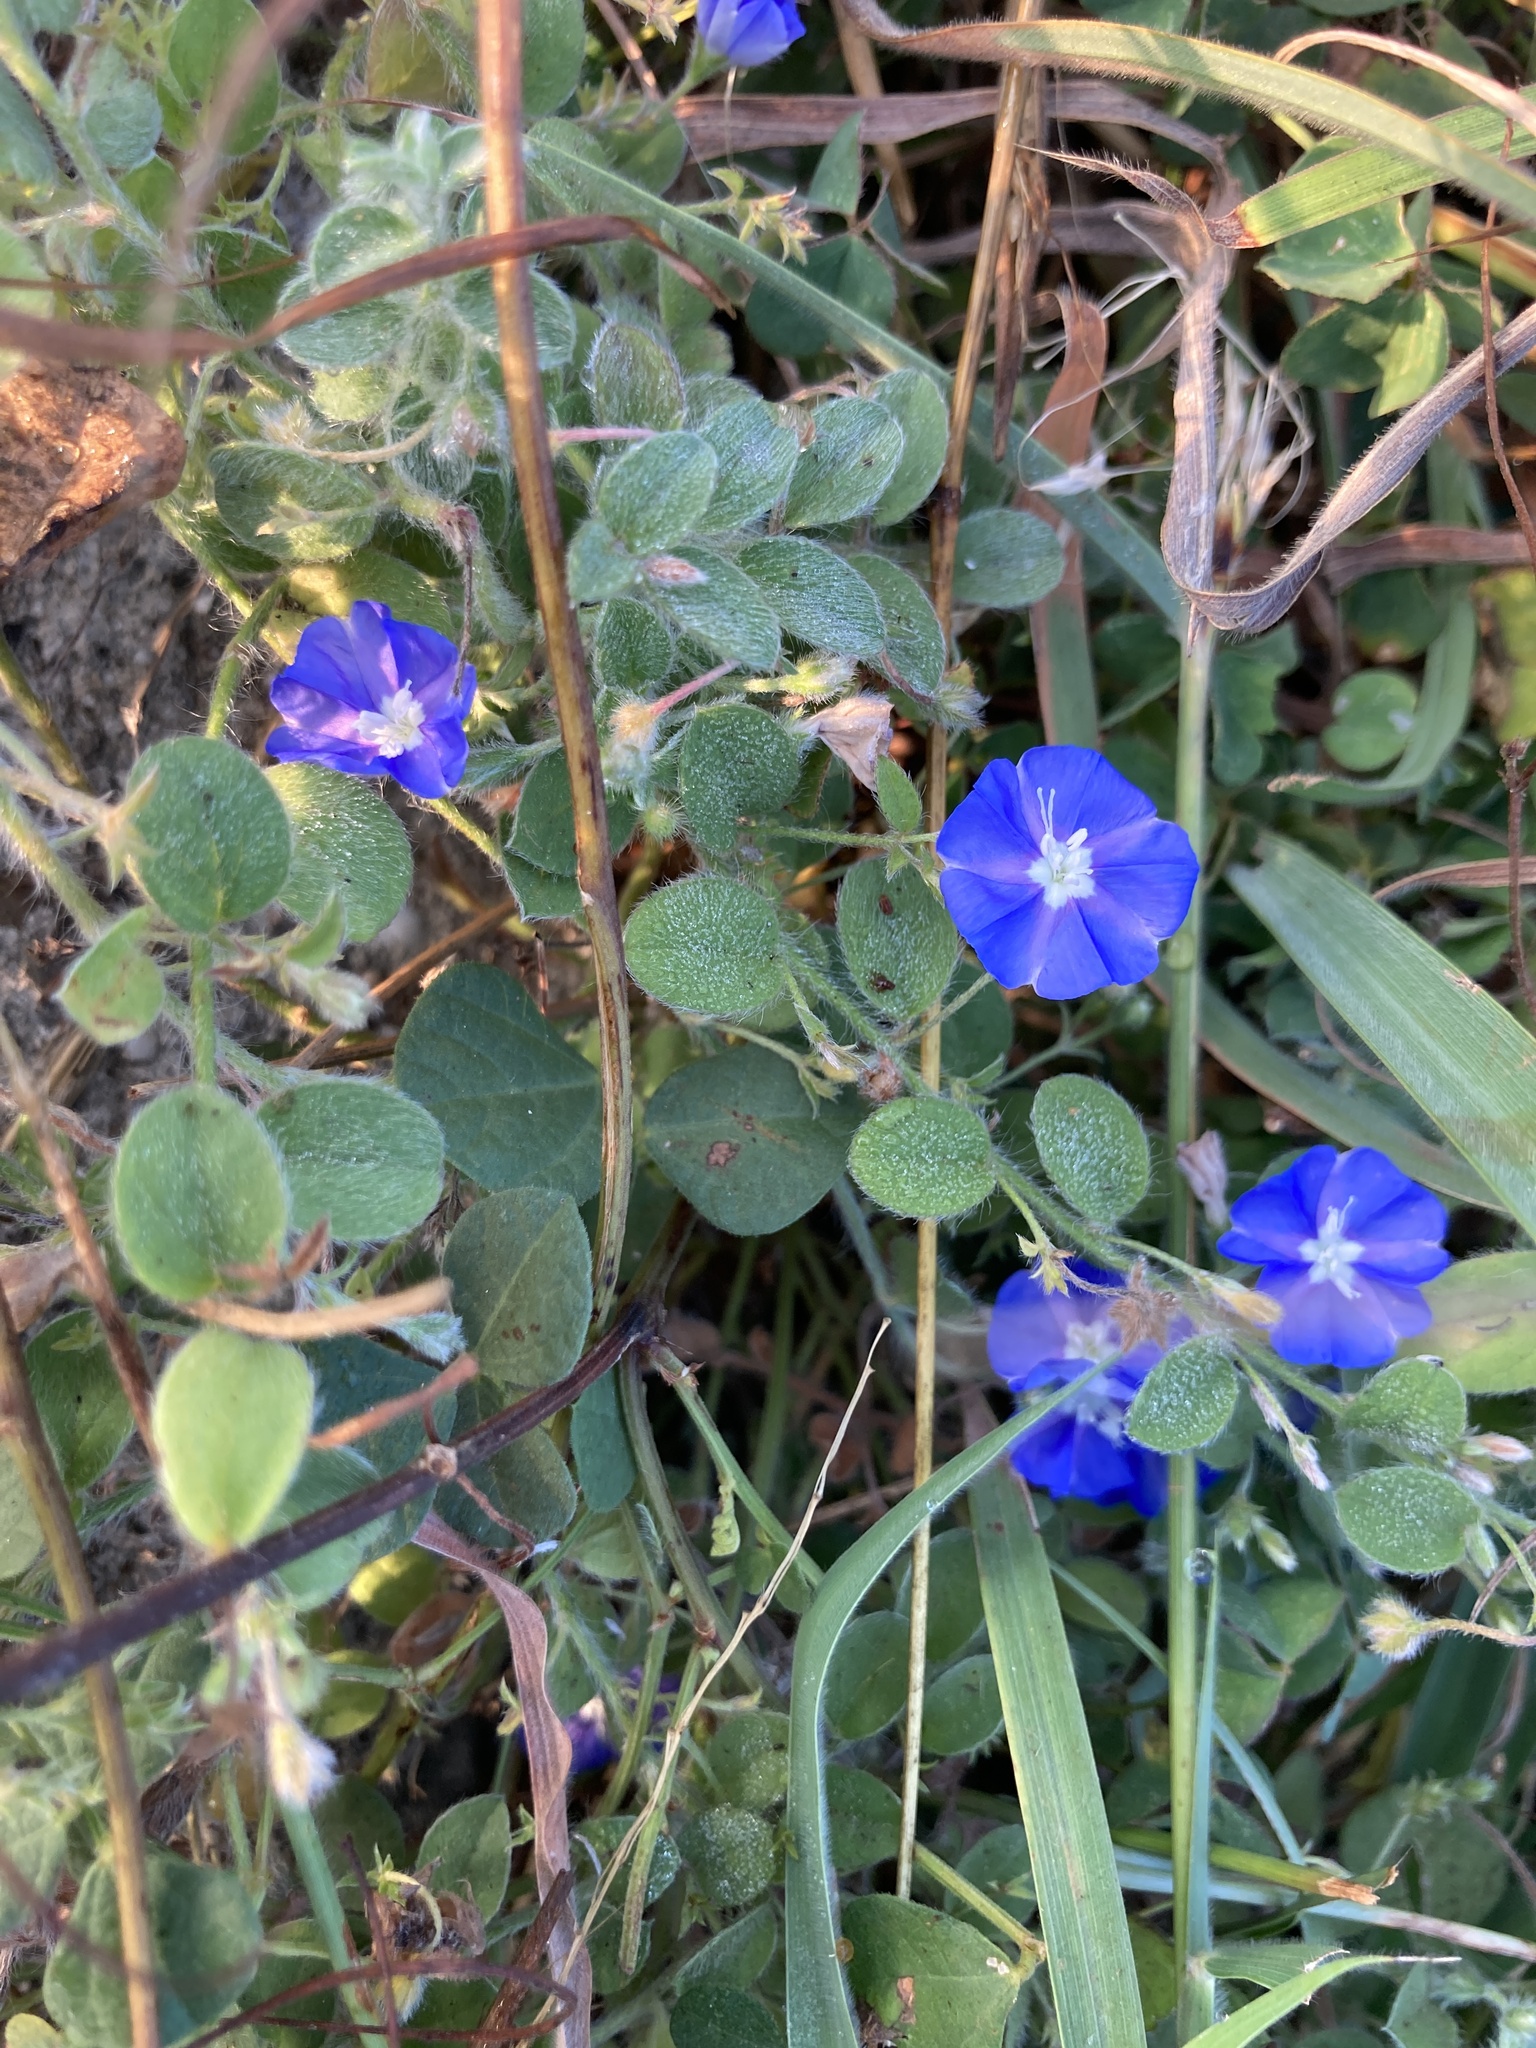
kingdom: Plantae
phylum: Tracheophyta
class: Magnoliopsida
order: Solanales
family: Convolvulaceae
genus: Evolvulus
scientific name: Evolvulus alsinoides
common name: Slender dwarf morning-glory
